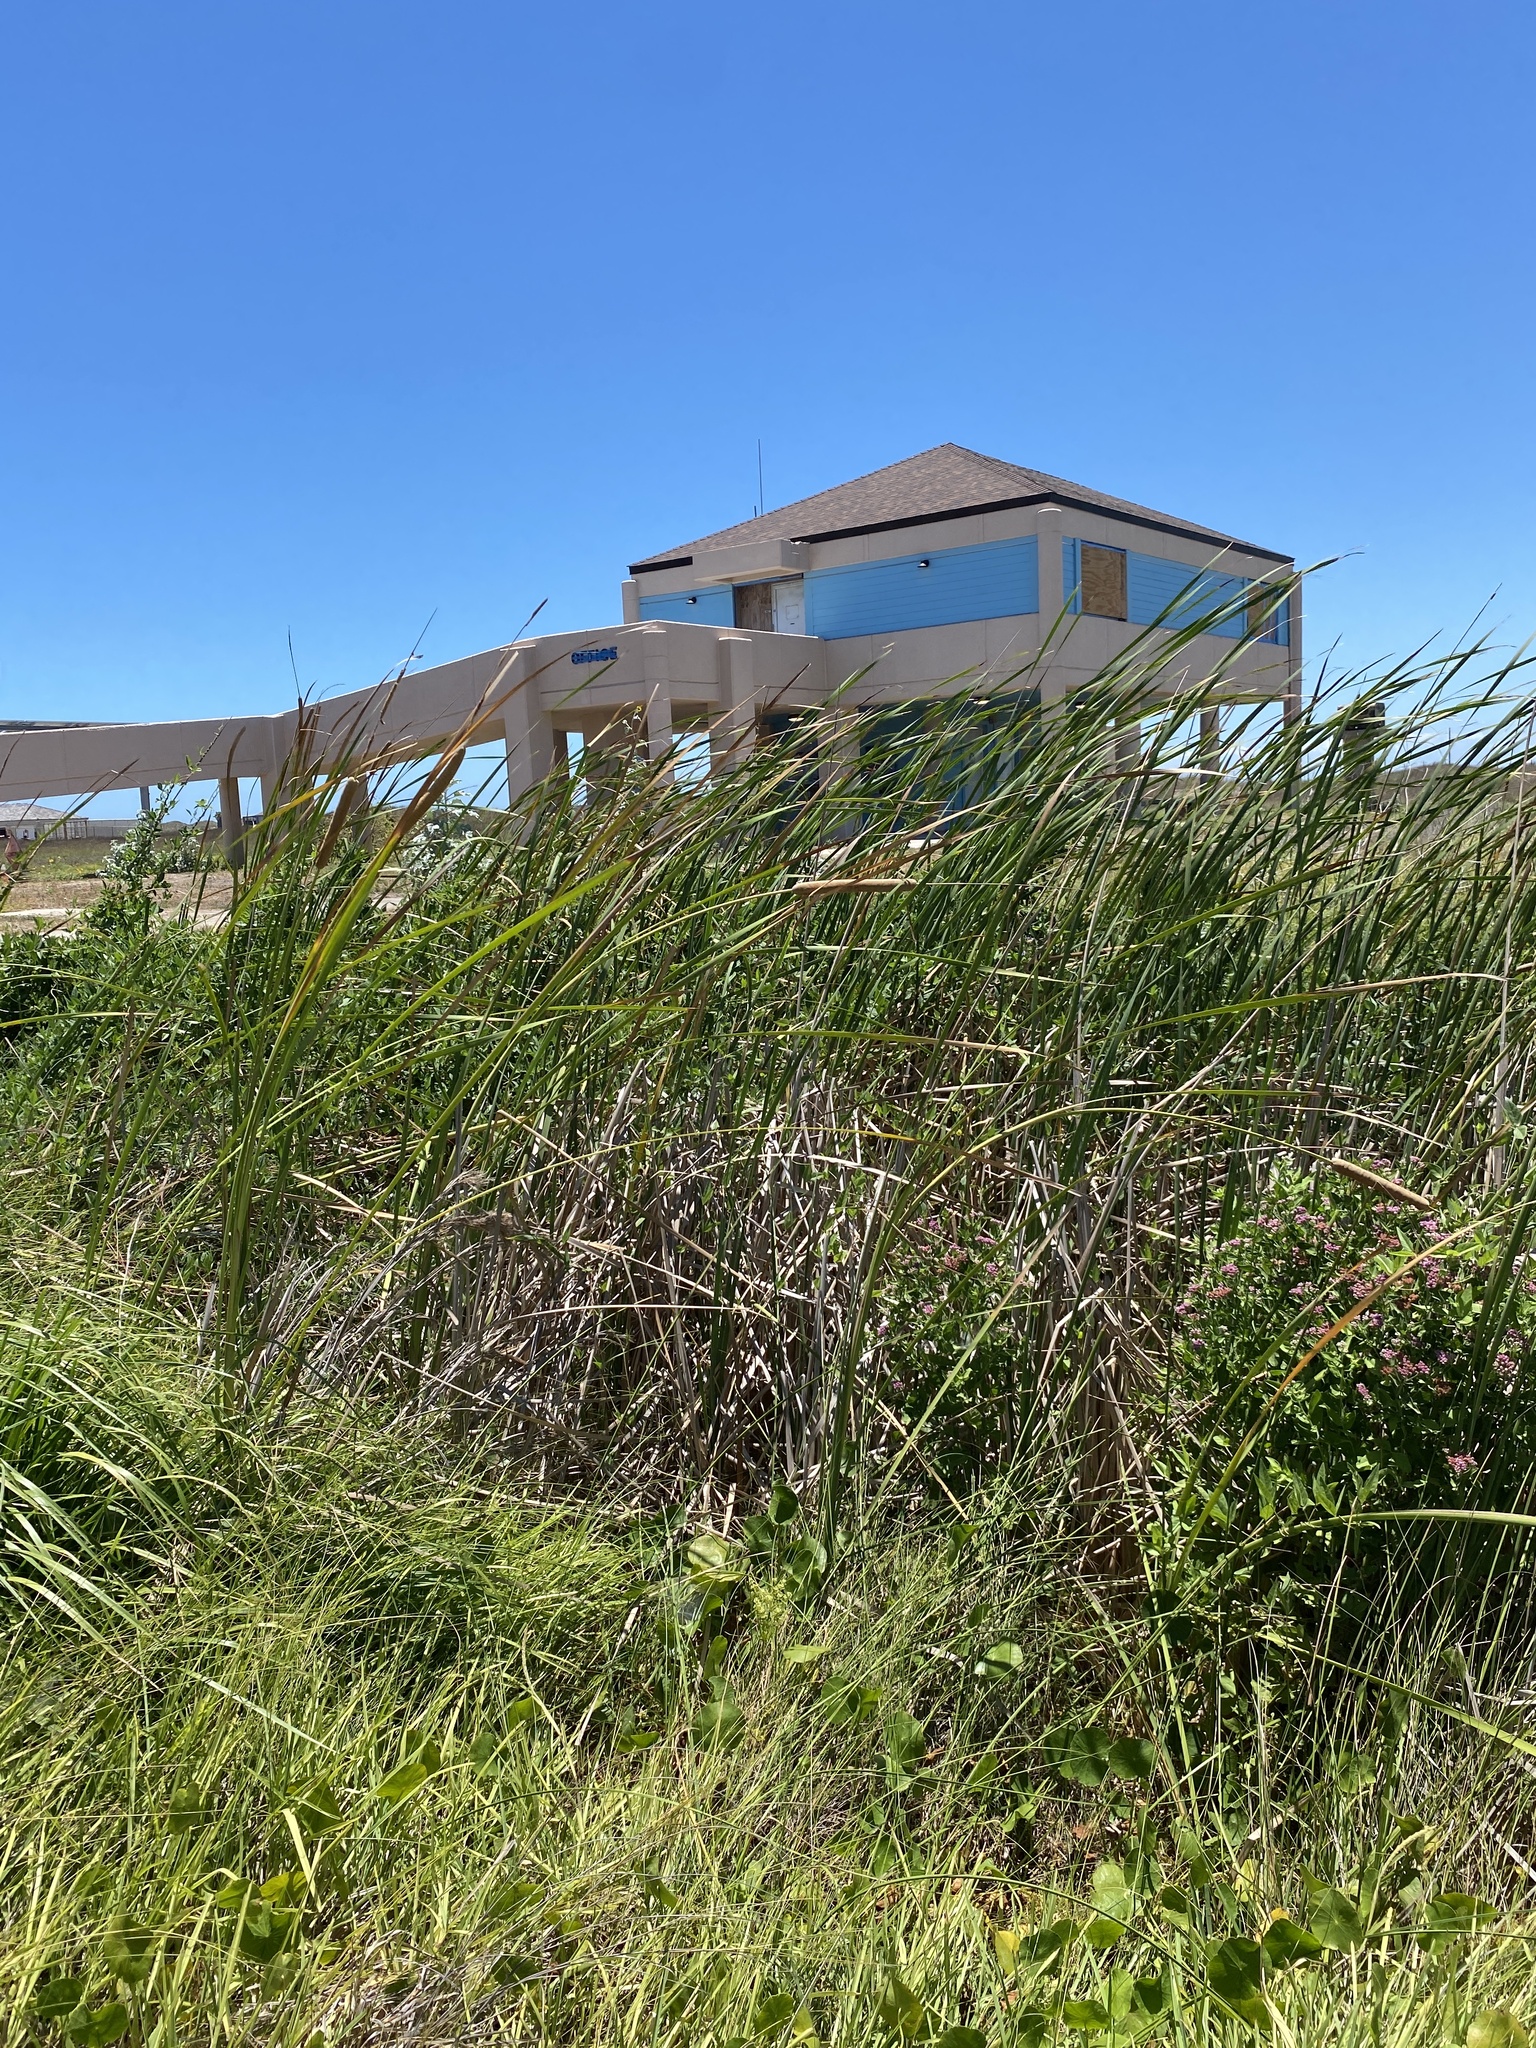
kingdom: Plantae
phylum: Tracheophyta
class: Magnoliopsida
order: Asterales
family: Asteraceae
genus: Pluchea
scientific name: Pluchea odorata
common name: Saltmarsh fleabane
